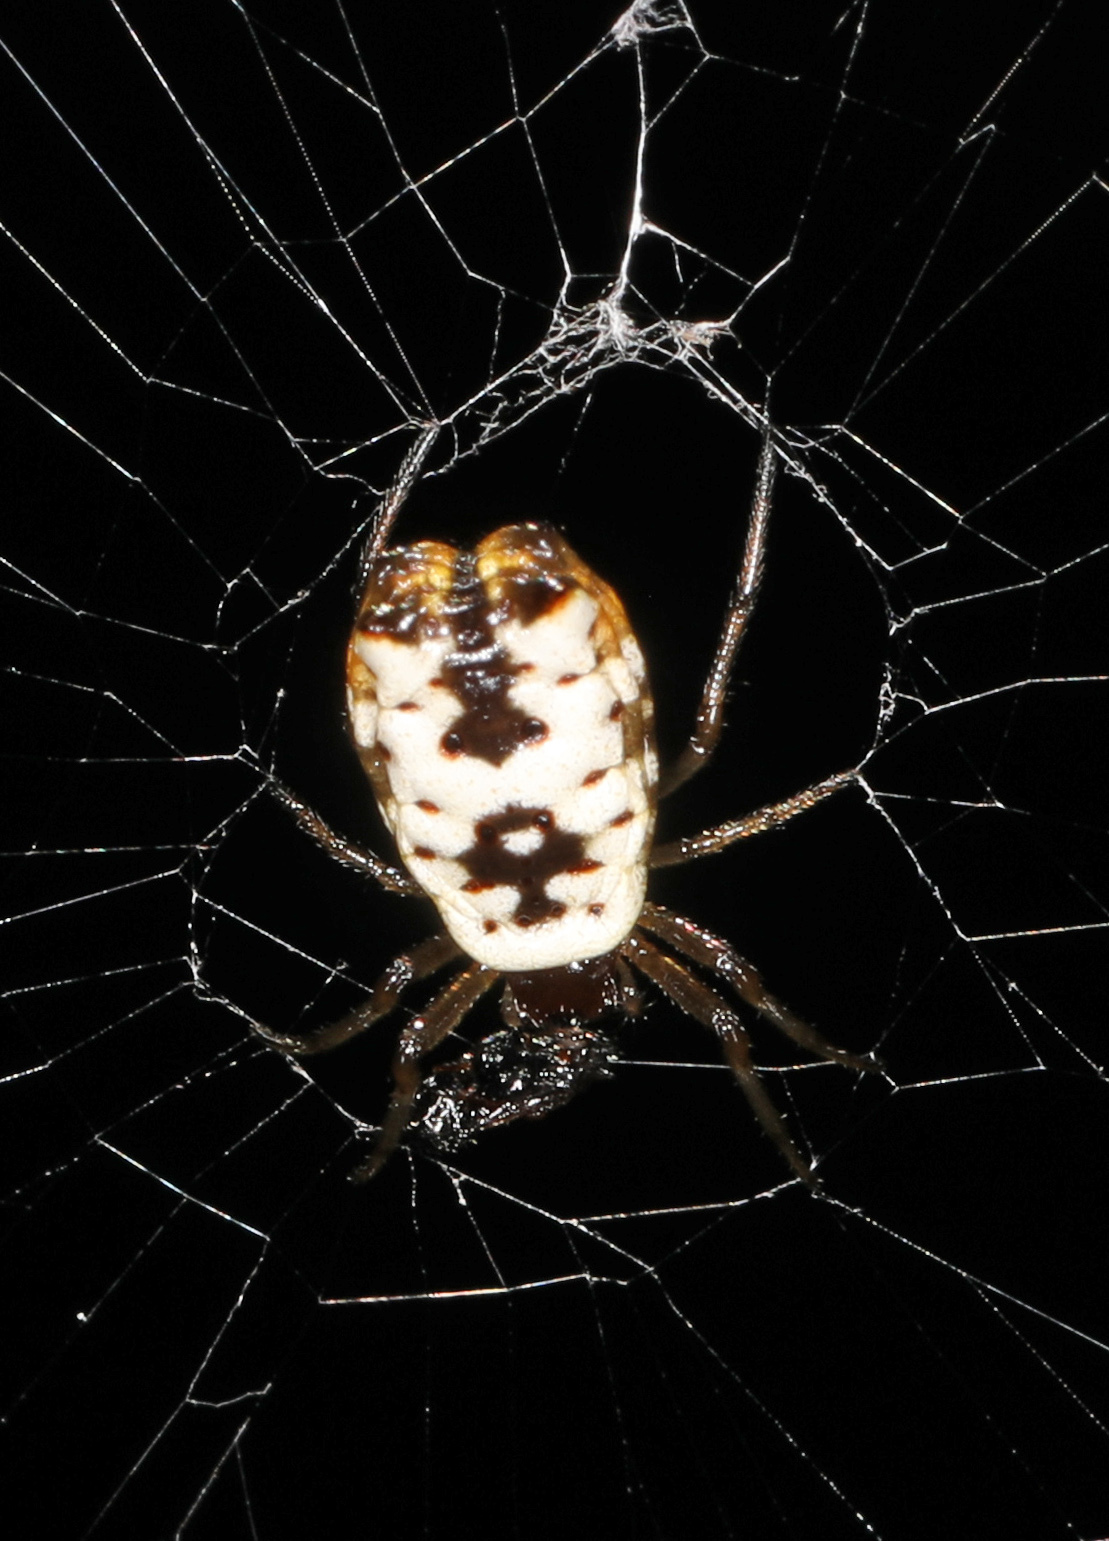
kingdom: Animalia
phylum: Arthropoda
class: Arachnida
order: Araneae
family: Araneidae
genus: Micrathena
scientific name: Micrathena mitrata
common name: Orb weavers
